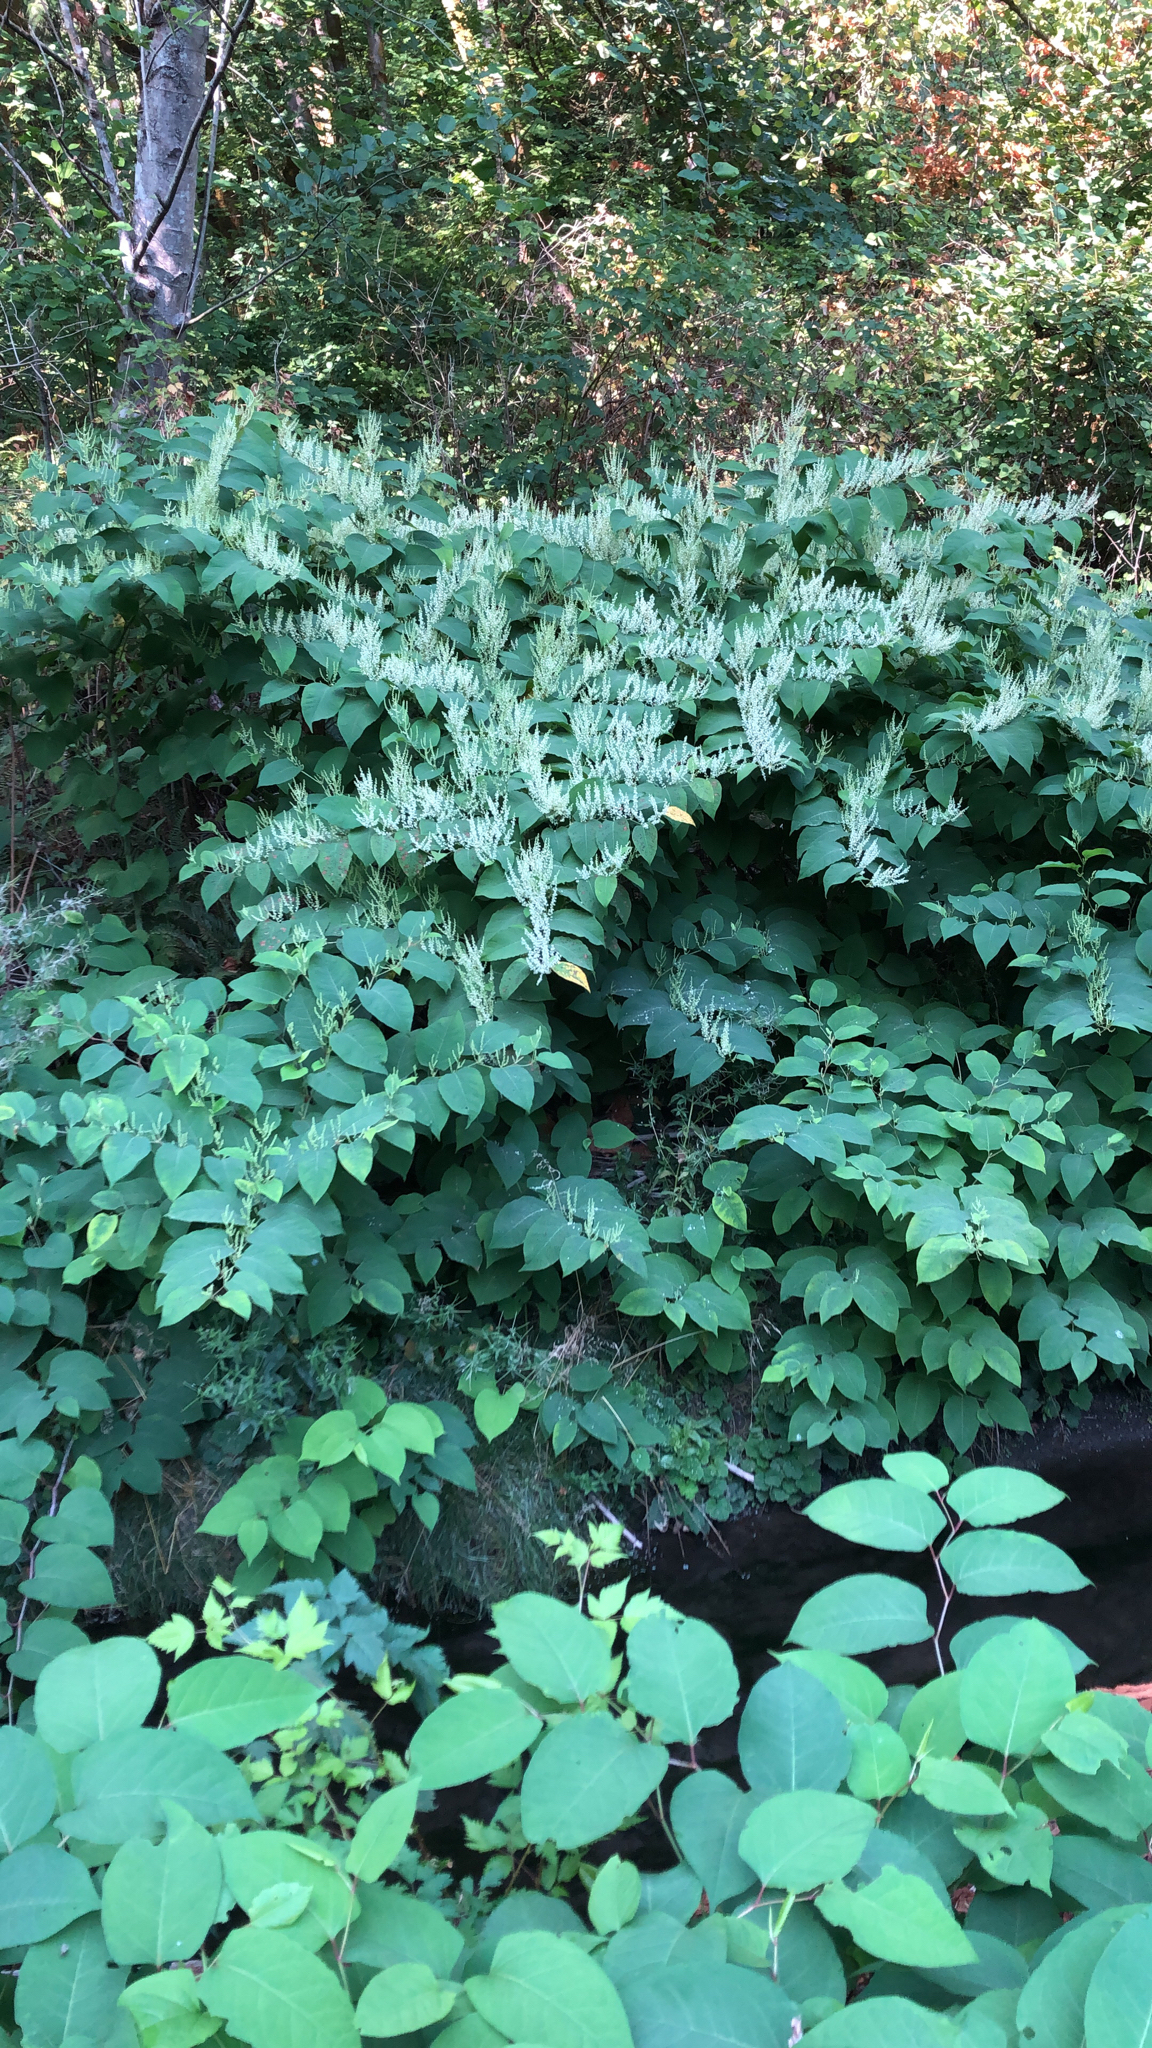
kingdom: Plantae
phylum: Tracheophyta
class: Magnoliopsida
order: Caryophyllales
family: Polygonaceae
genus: Reynoutria
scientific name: Reynoutria japonica
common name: Japanese knotweed
